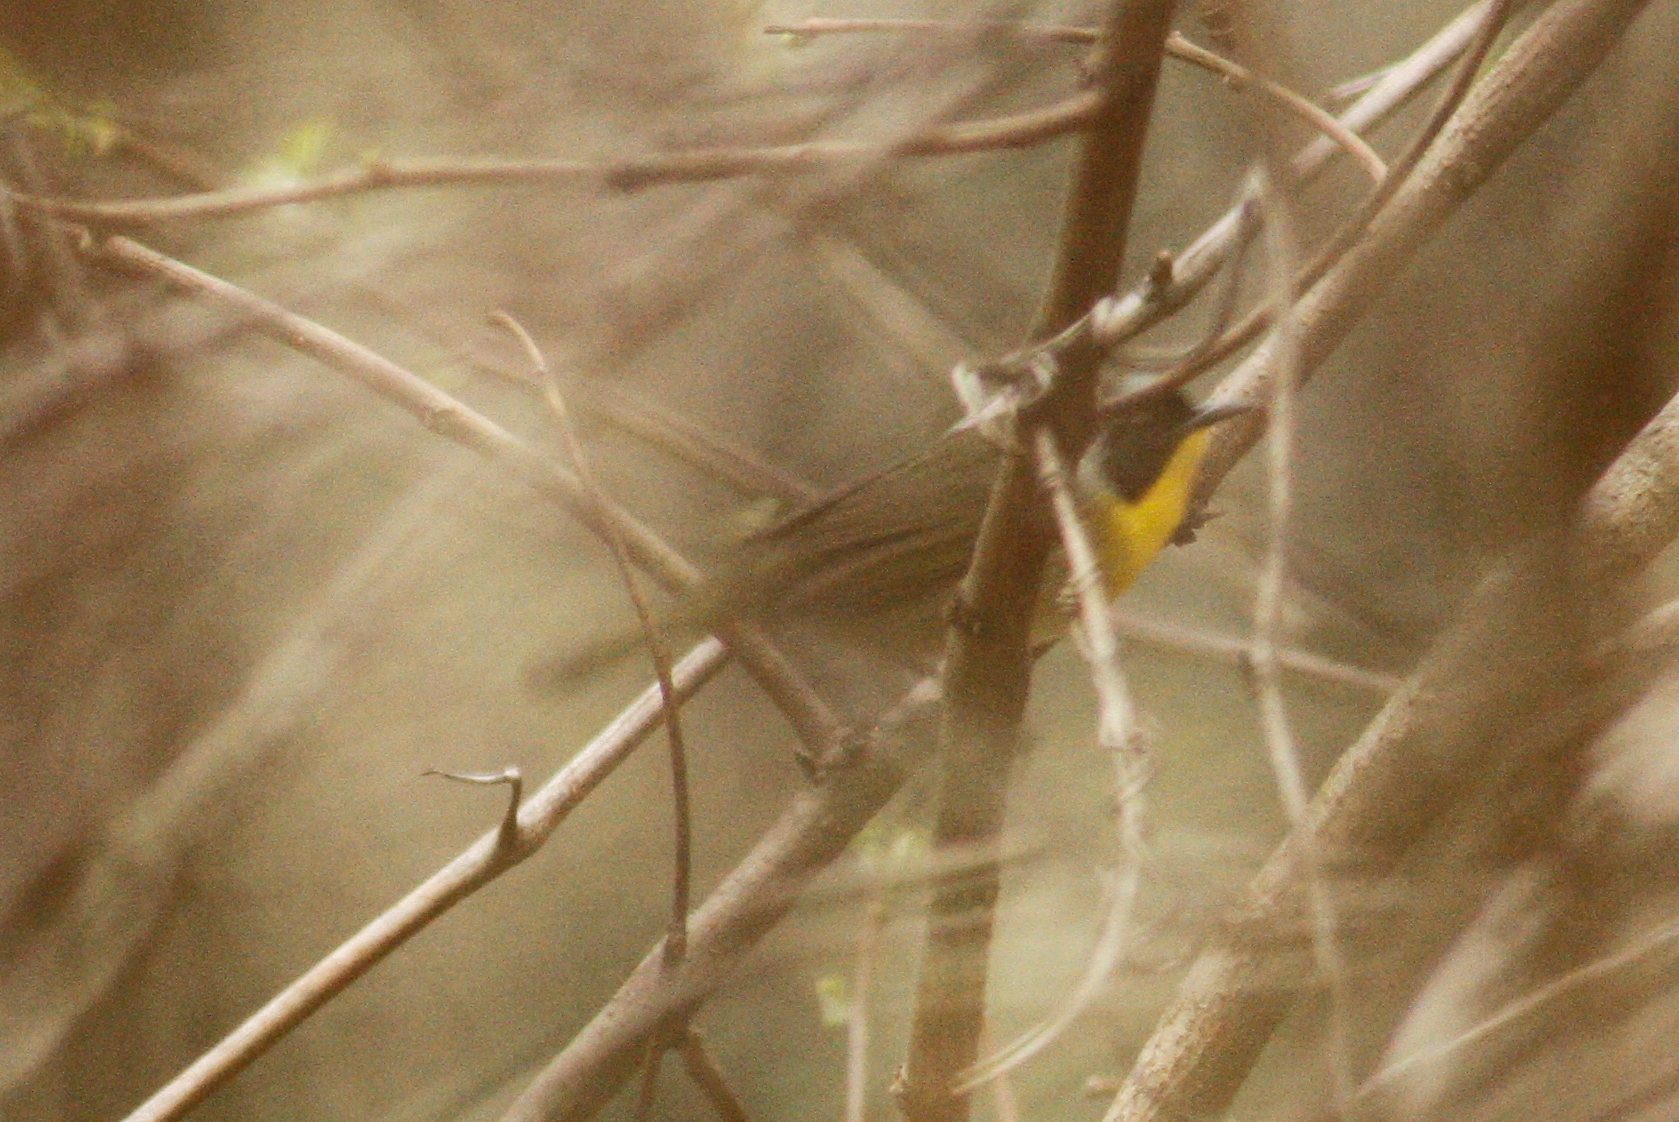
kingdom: Animalia
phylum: Chordata
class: Aves
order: Passeriformes
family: Parulidae
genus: Geothlypis
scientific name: Geothlypis trichas
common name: Common yellowthroat
